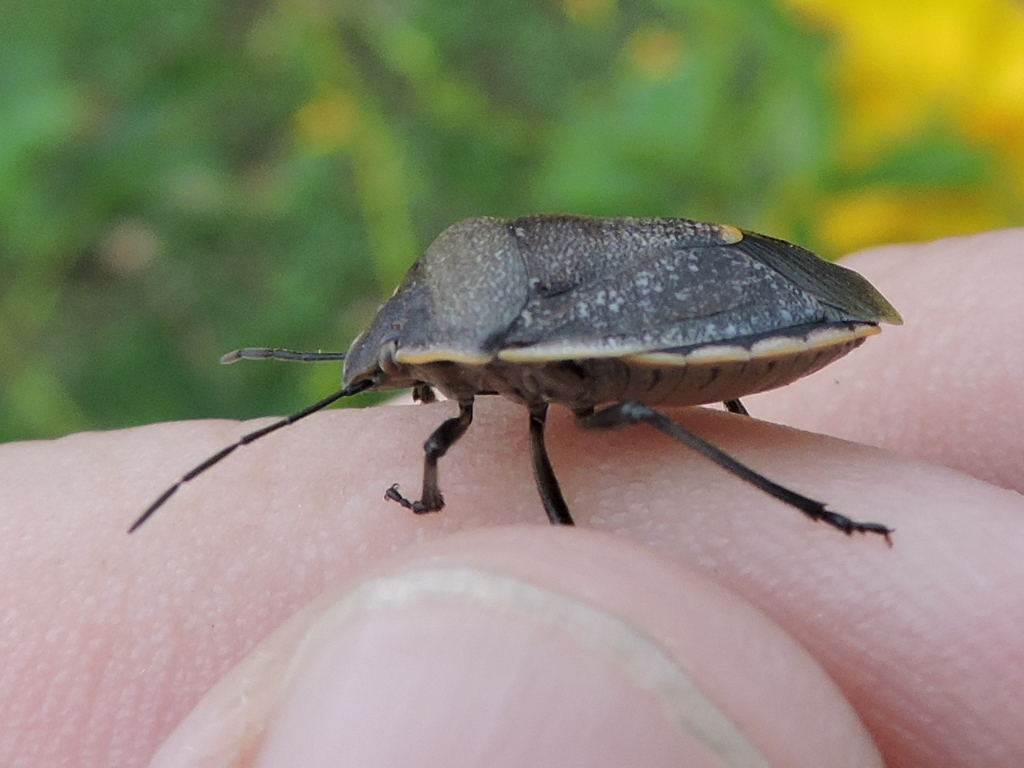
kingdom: Animalia
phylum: Arthropoda
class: Insecta
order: Hemiptera
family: Pentatomidae
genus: Chlorochroa
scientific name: Chlorochroa ligata
